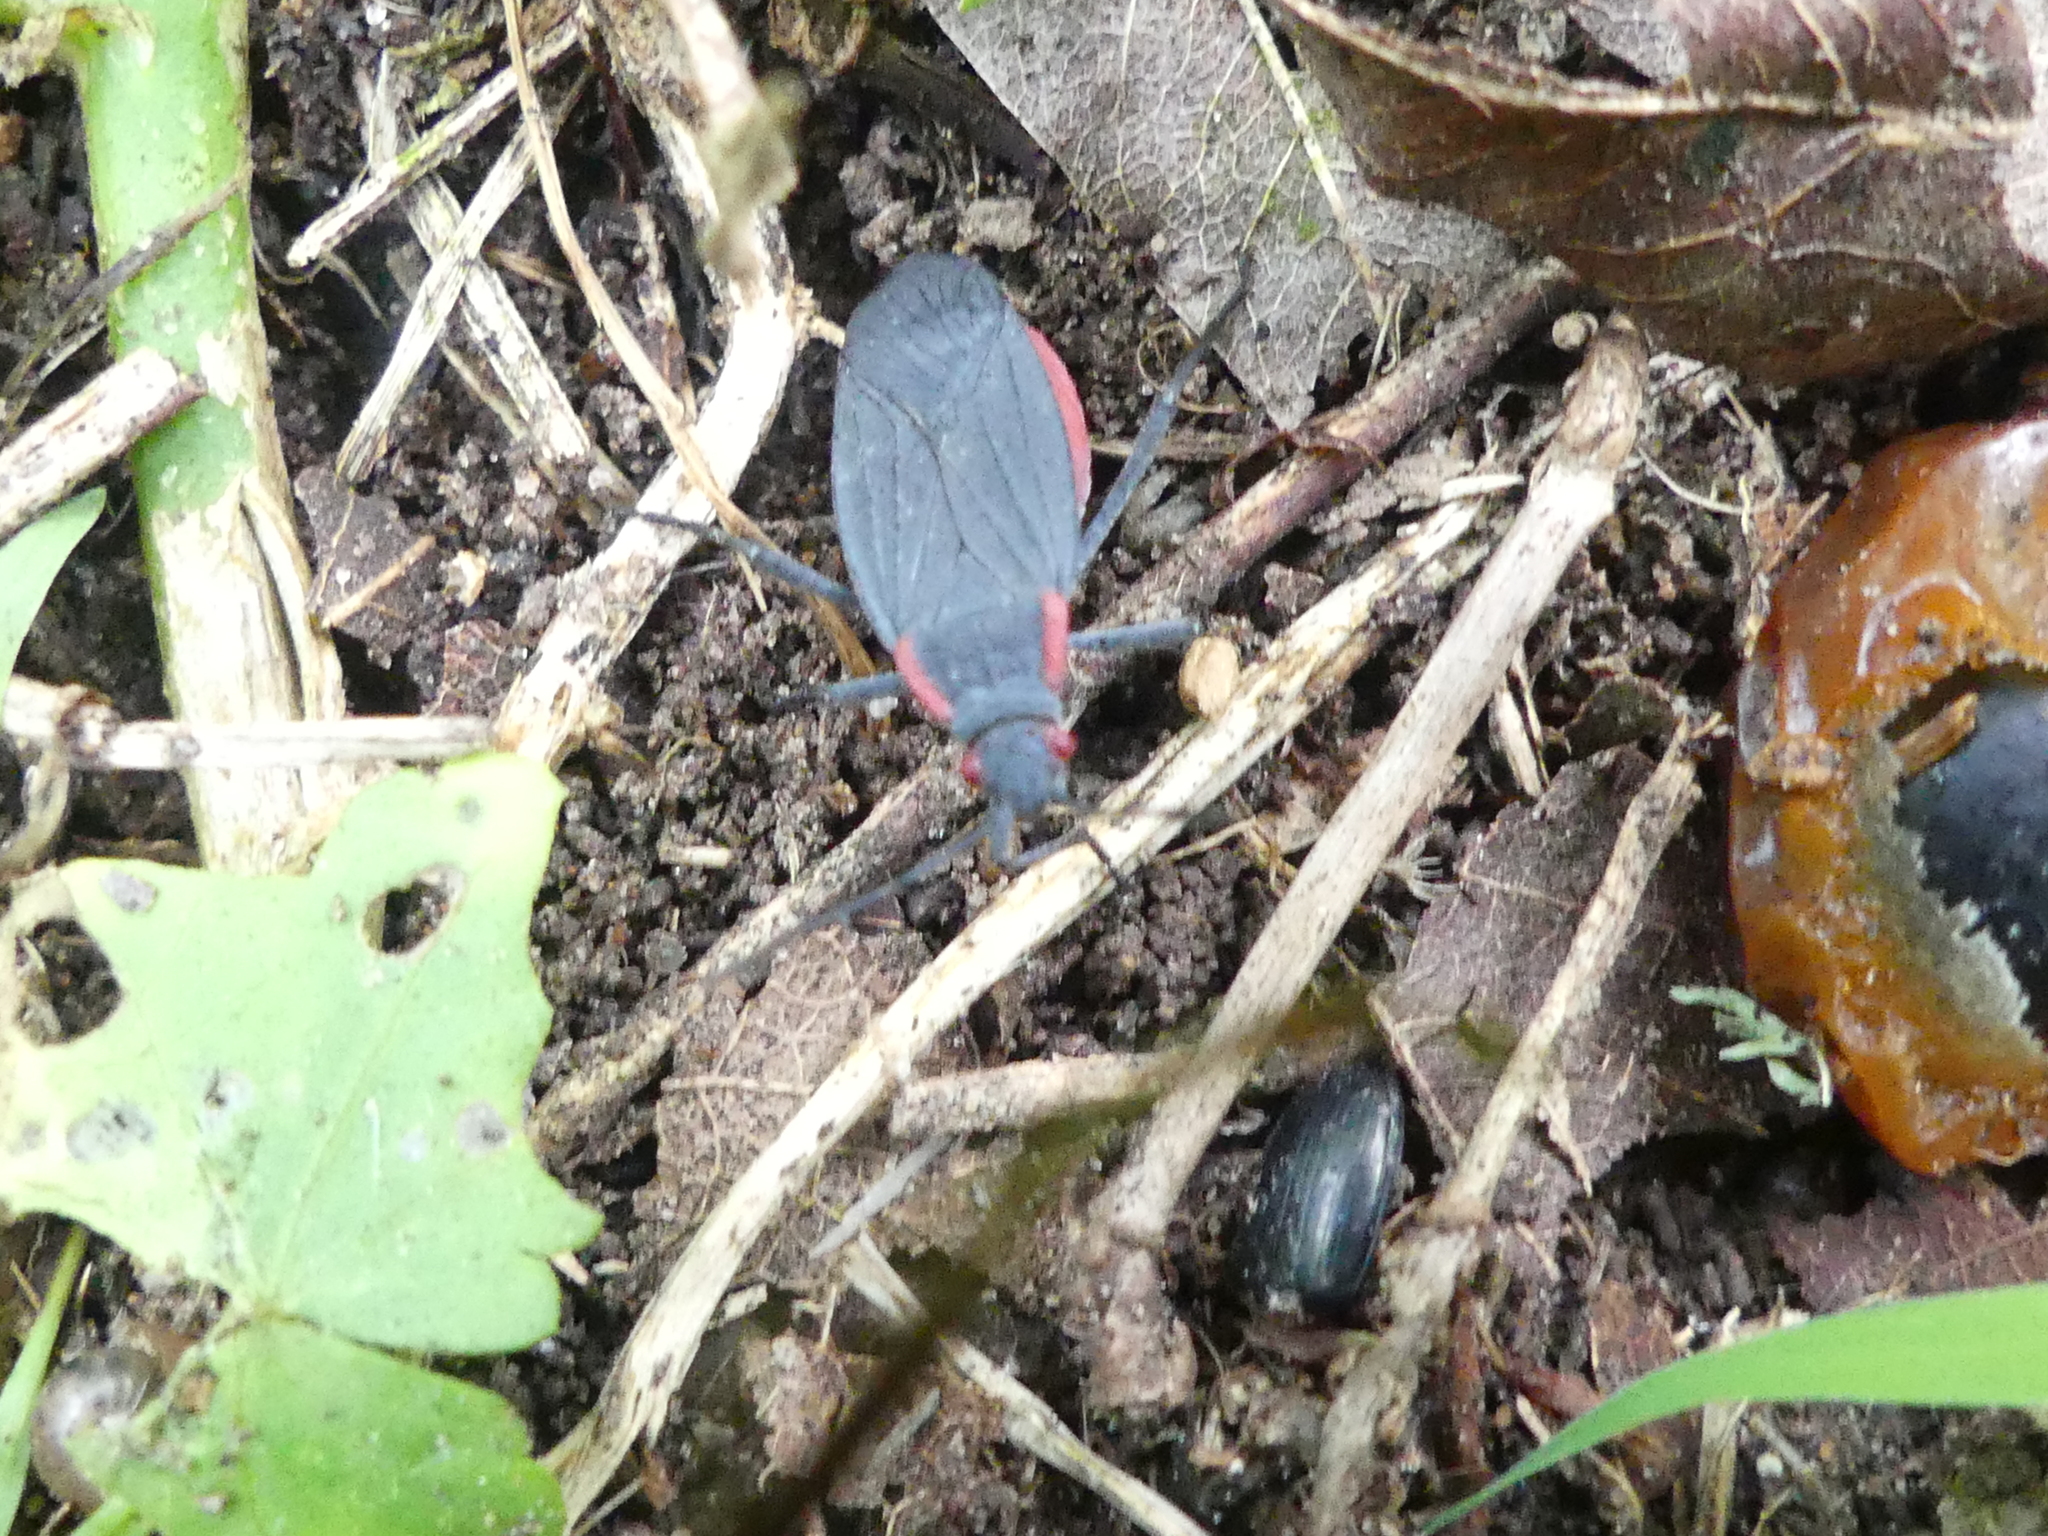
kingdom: Animalia
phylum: Arthropoda
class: Insecta
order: Hemiptera
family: Rhopalidae
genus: Jadera
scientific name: Jadera haematoloma
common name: Red-shouldered bug
